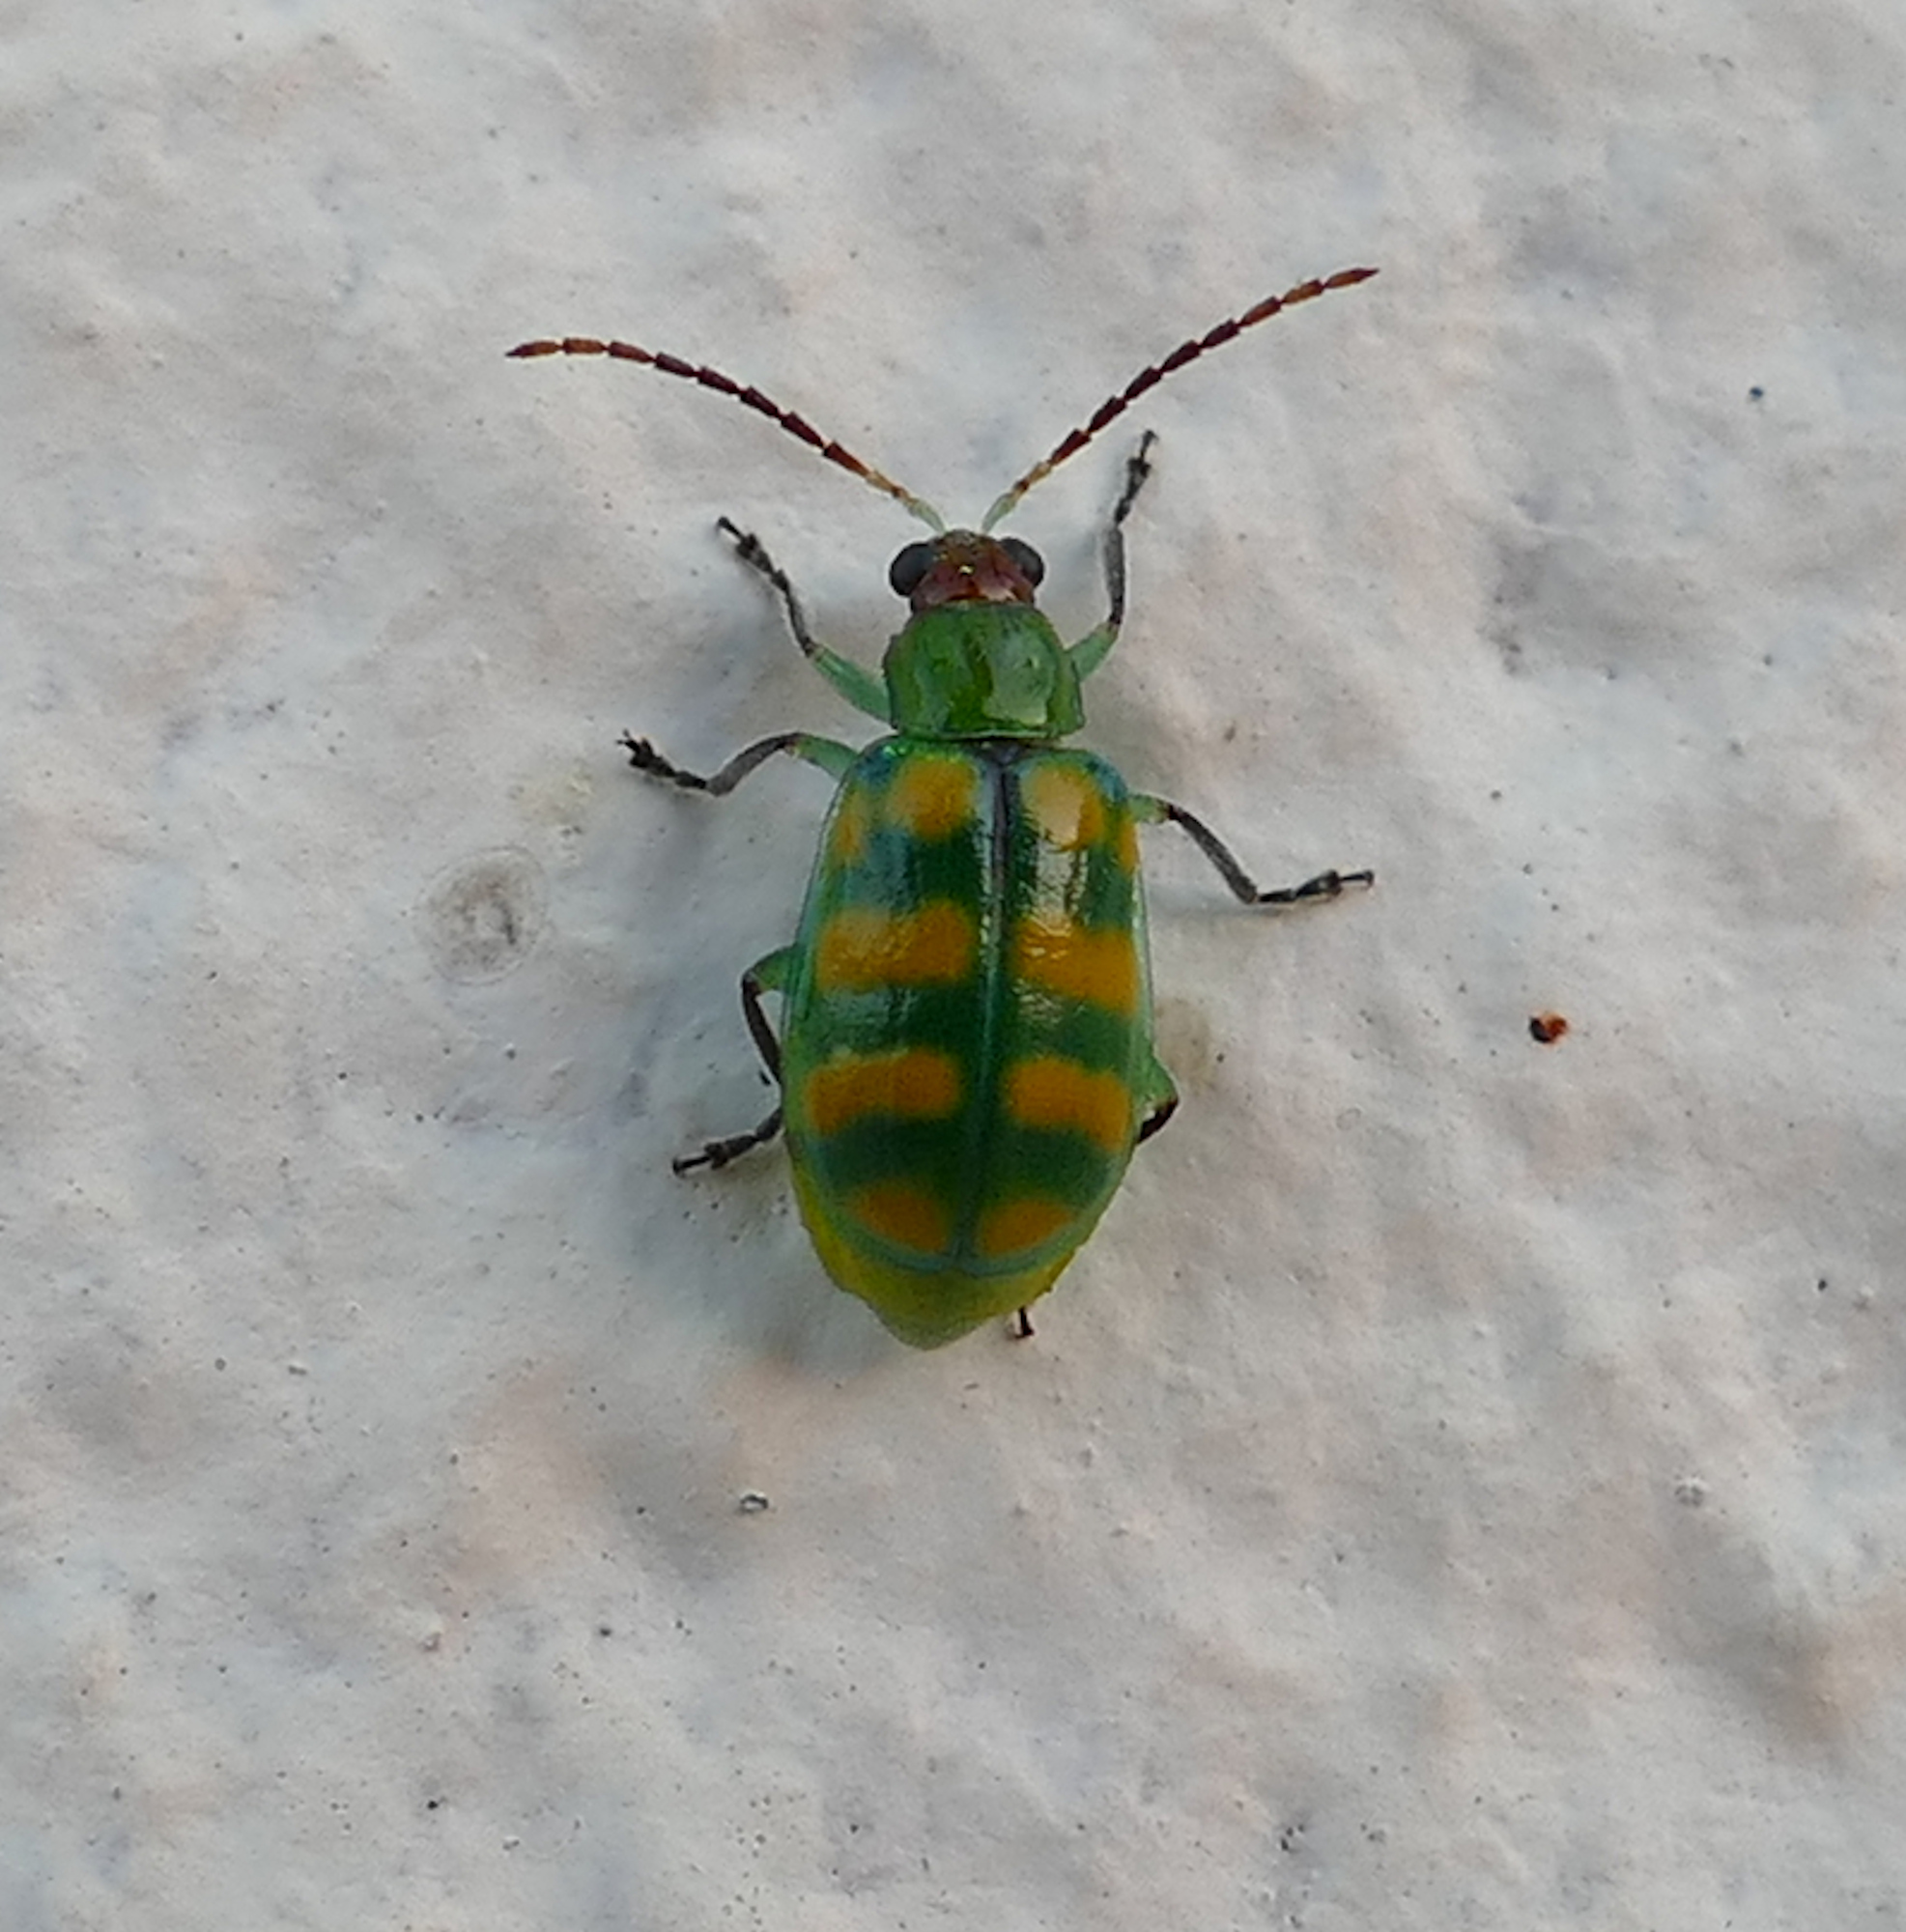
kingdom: Animalia
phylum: Arthropoda
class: Insecta
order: Coleoptera
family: Chrysomelidae
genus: Diabrotica
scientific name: Diabrotica balteata
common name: Leaf beetle
